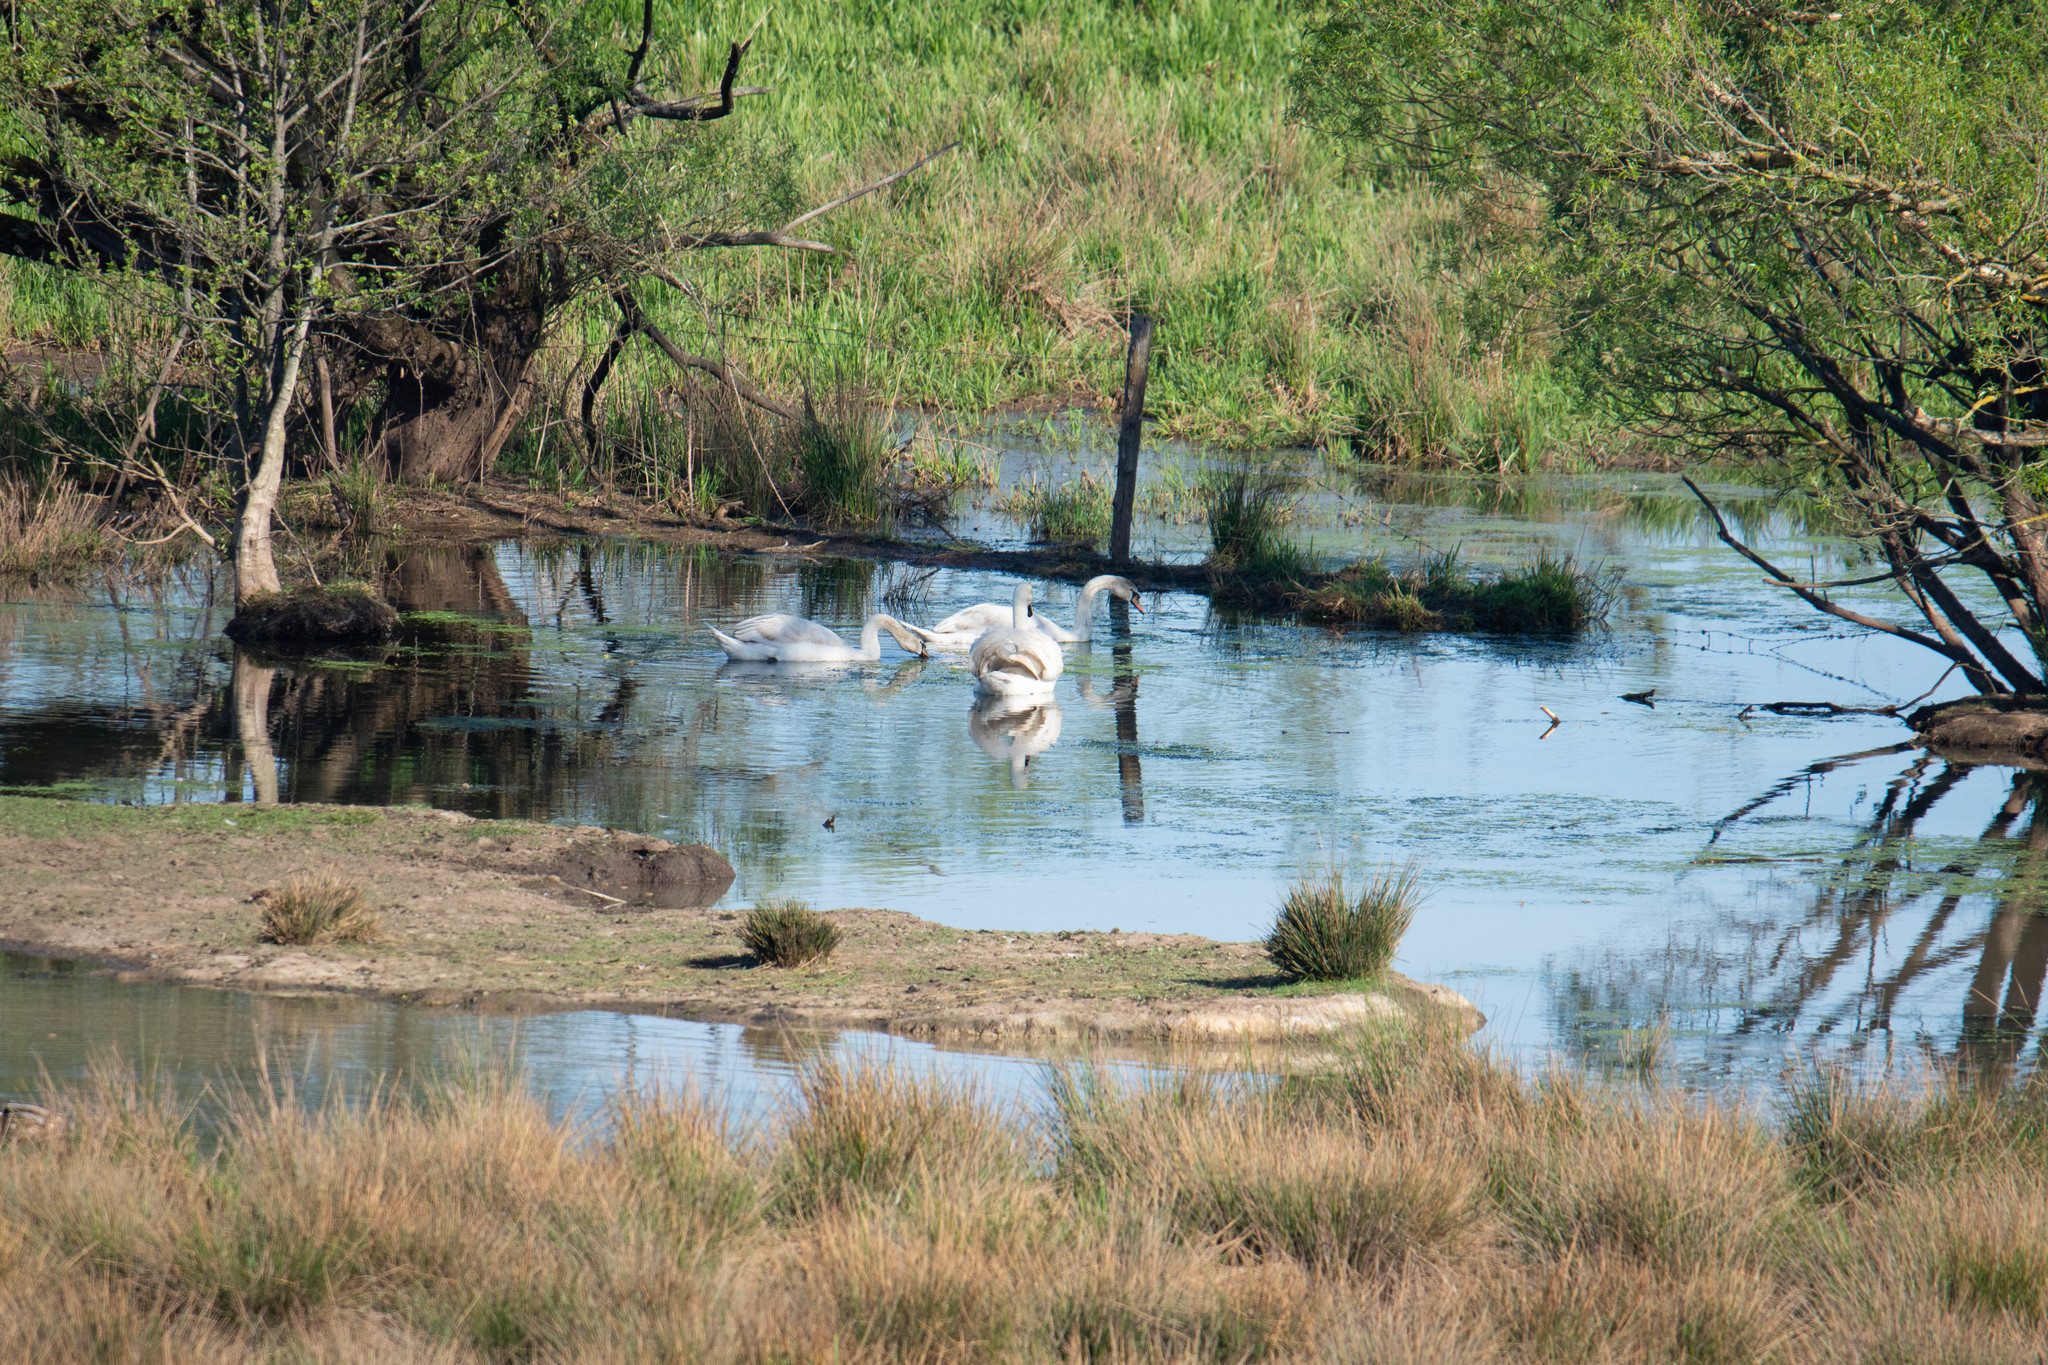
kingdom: Animalia
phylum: Chordata
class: Aves
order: Anseriformes
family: Anatidae
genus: Cygnus
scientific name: Cygnus olor
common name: Mute swan
